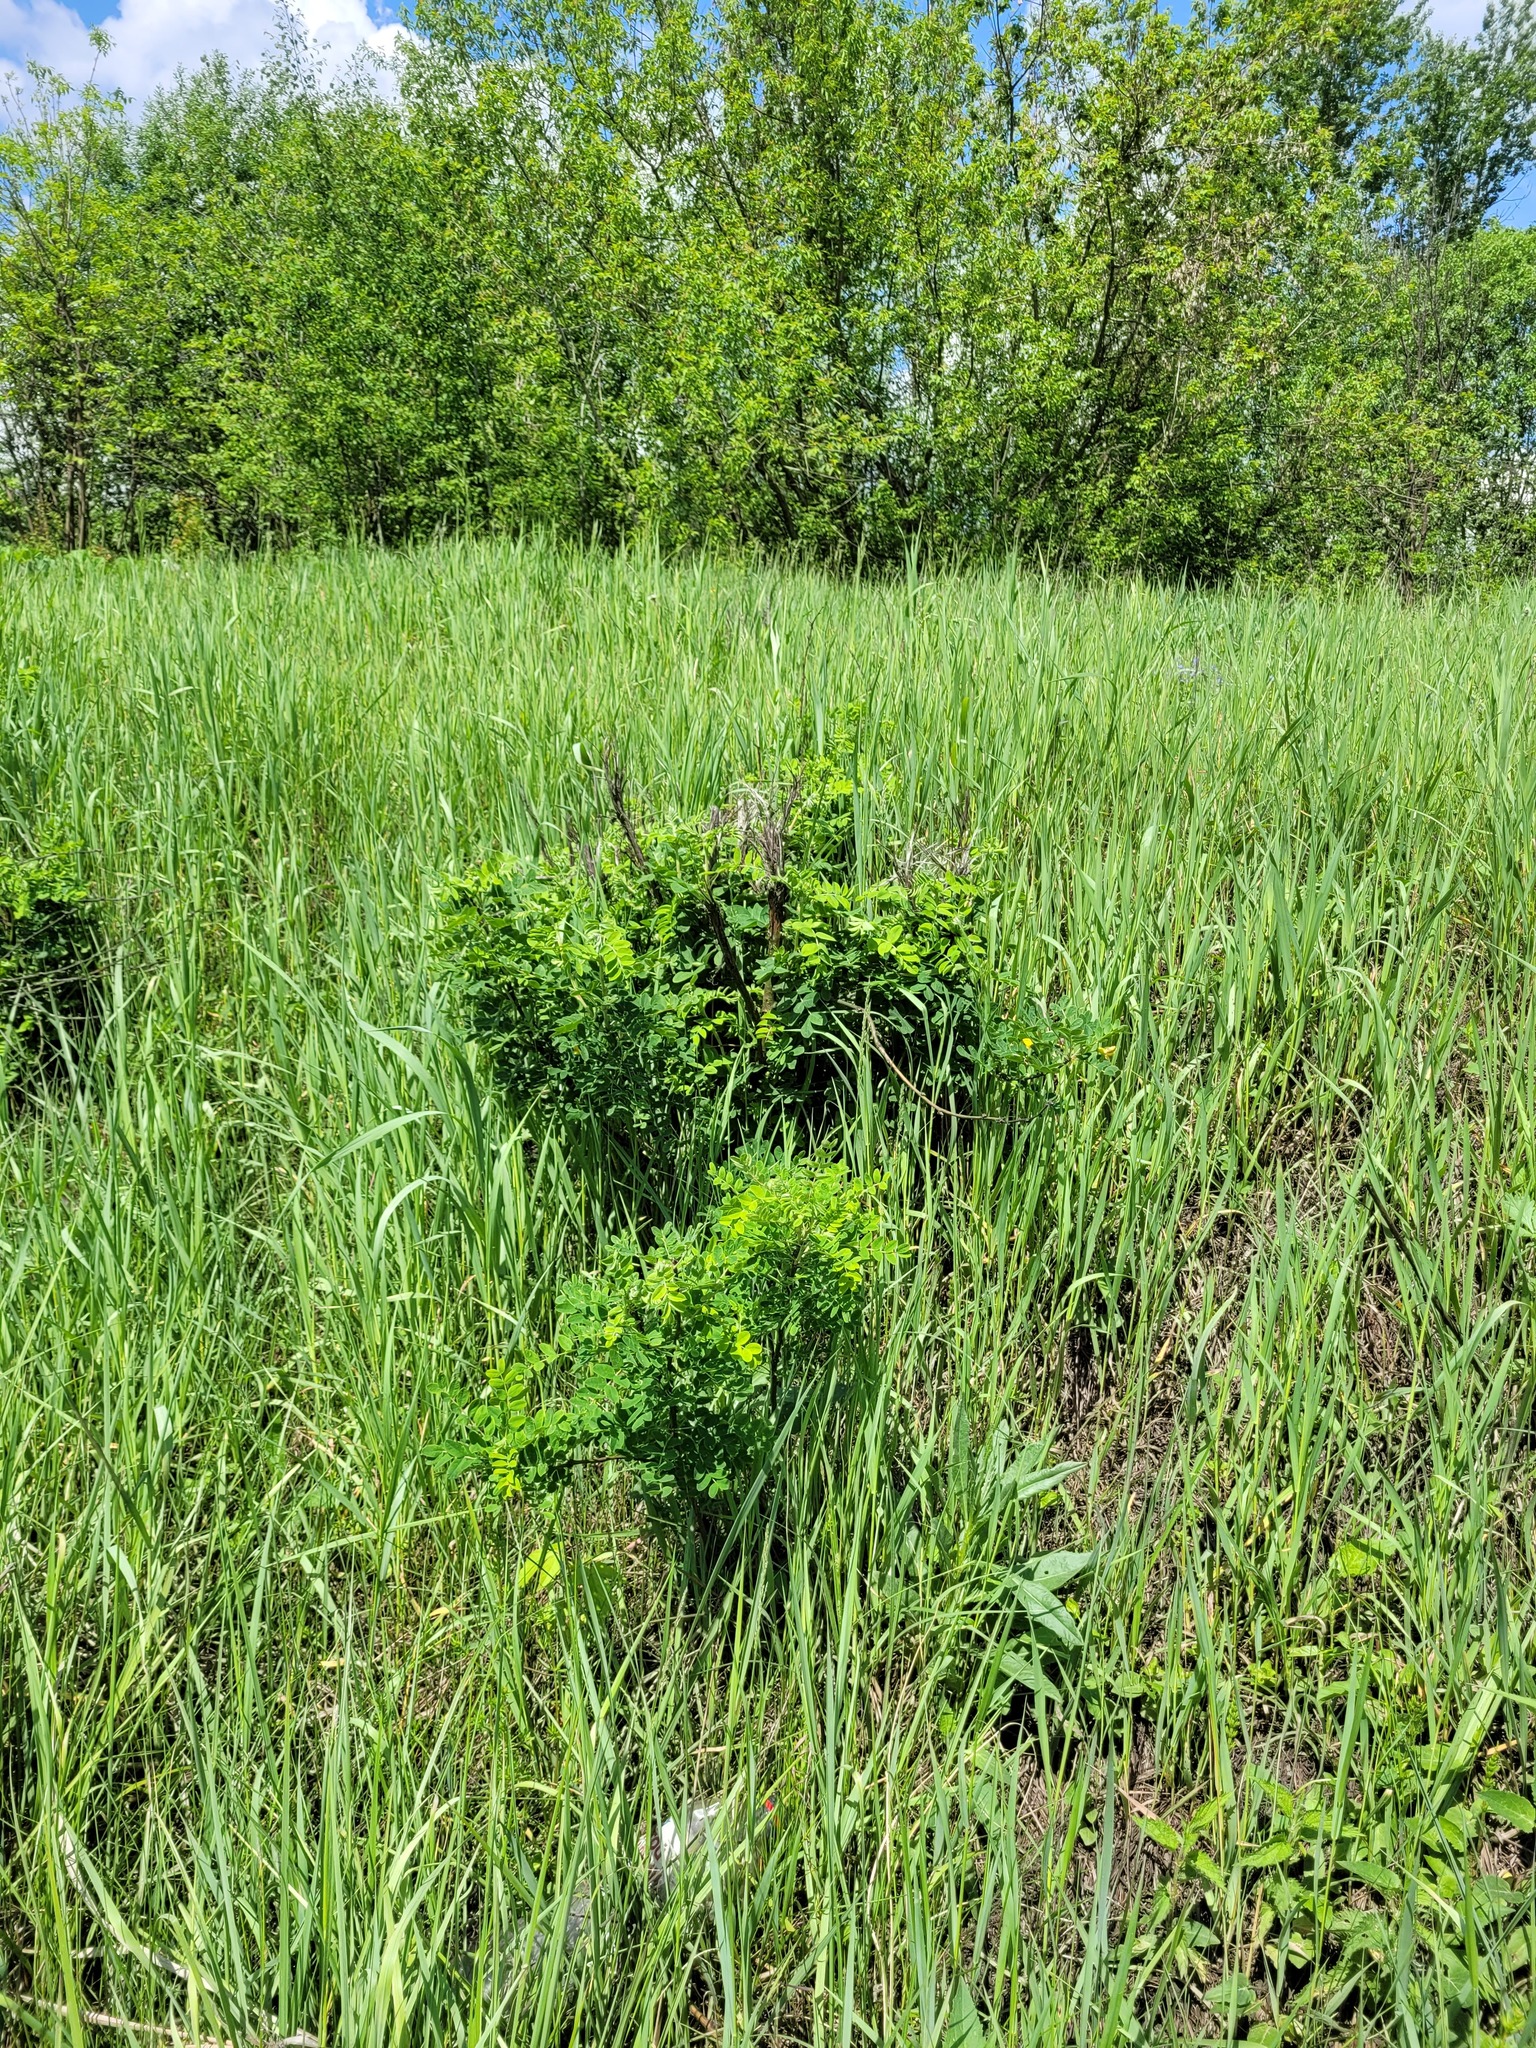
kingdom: Plantae
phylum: Tracheophyta
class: Magnoliopsida
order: Fabales
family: Fabaceae
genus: Caragana
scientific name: Caragana arborescens
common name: Siberian peashrub
